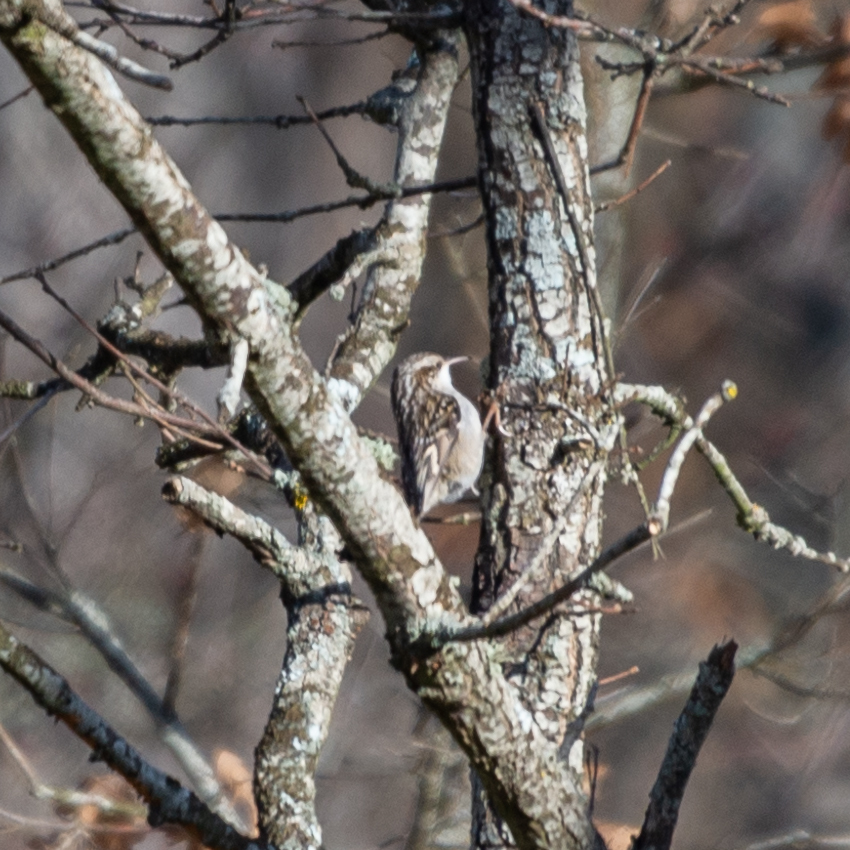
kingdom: Animalia
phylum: Chordata
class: Aves
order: Passeriformes
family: Certhiidae
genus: Certhia
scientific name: Certhia brachydactyla
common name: Short-toed treecreeper
